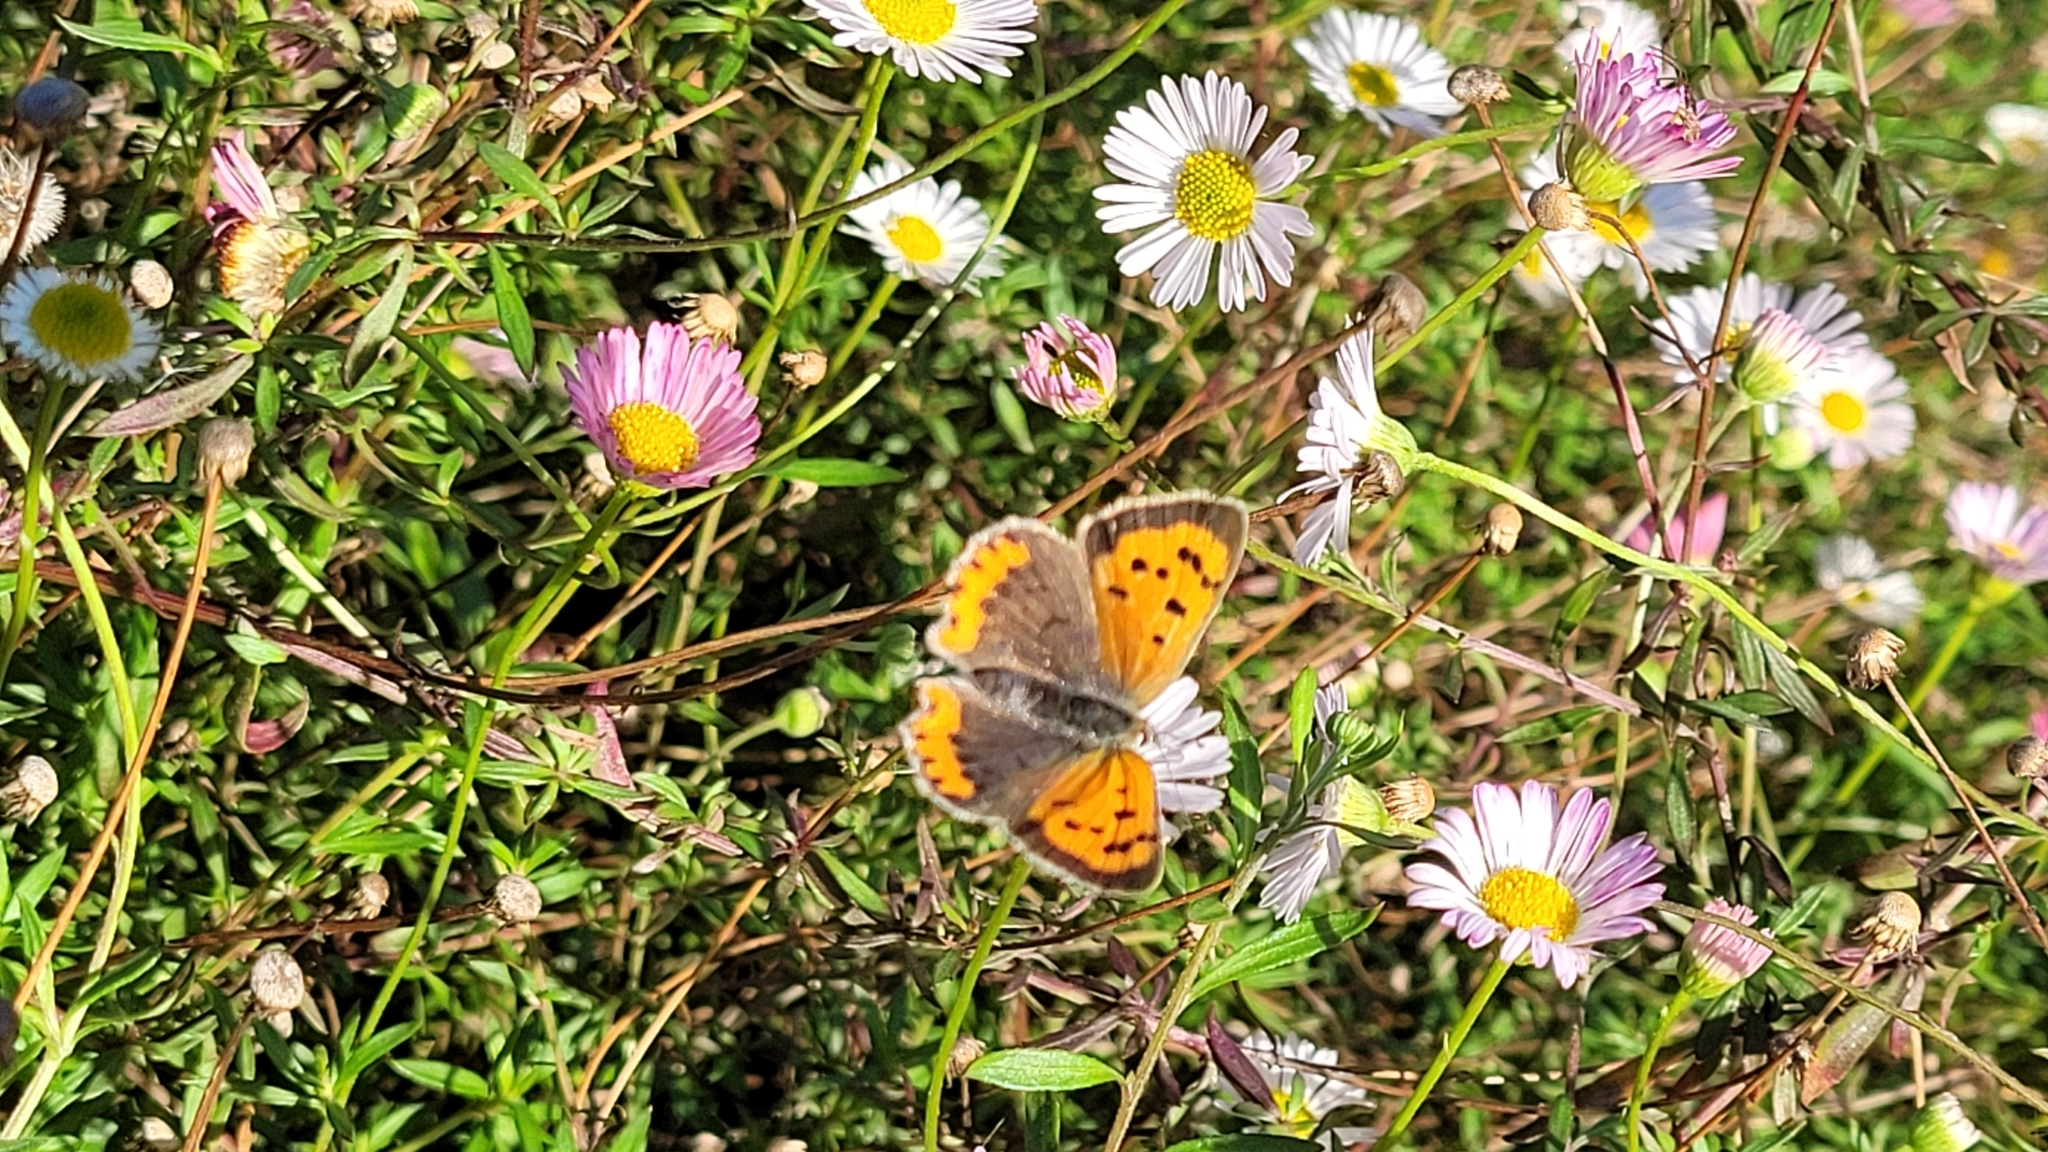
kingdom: Animalia
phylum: Arthropoda
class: Insecta
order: Lepidoptera
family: Lycaenidae
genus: Lycaena
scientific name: Lycaena phlaeas
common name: Small copper
